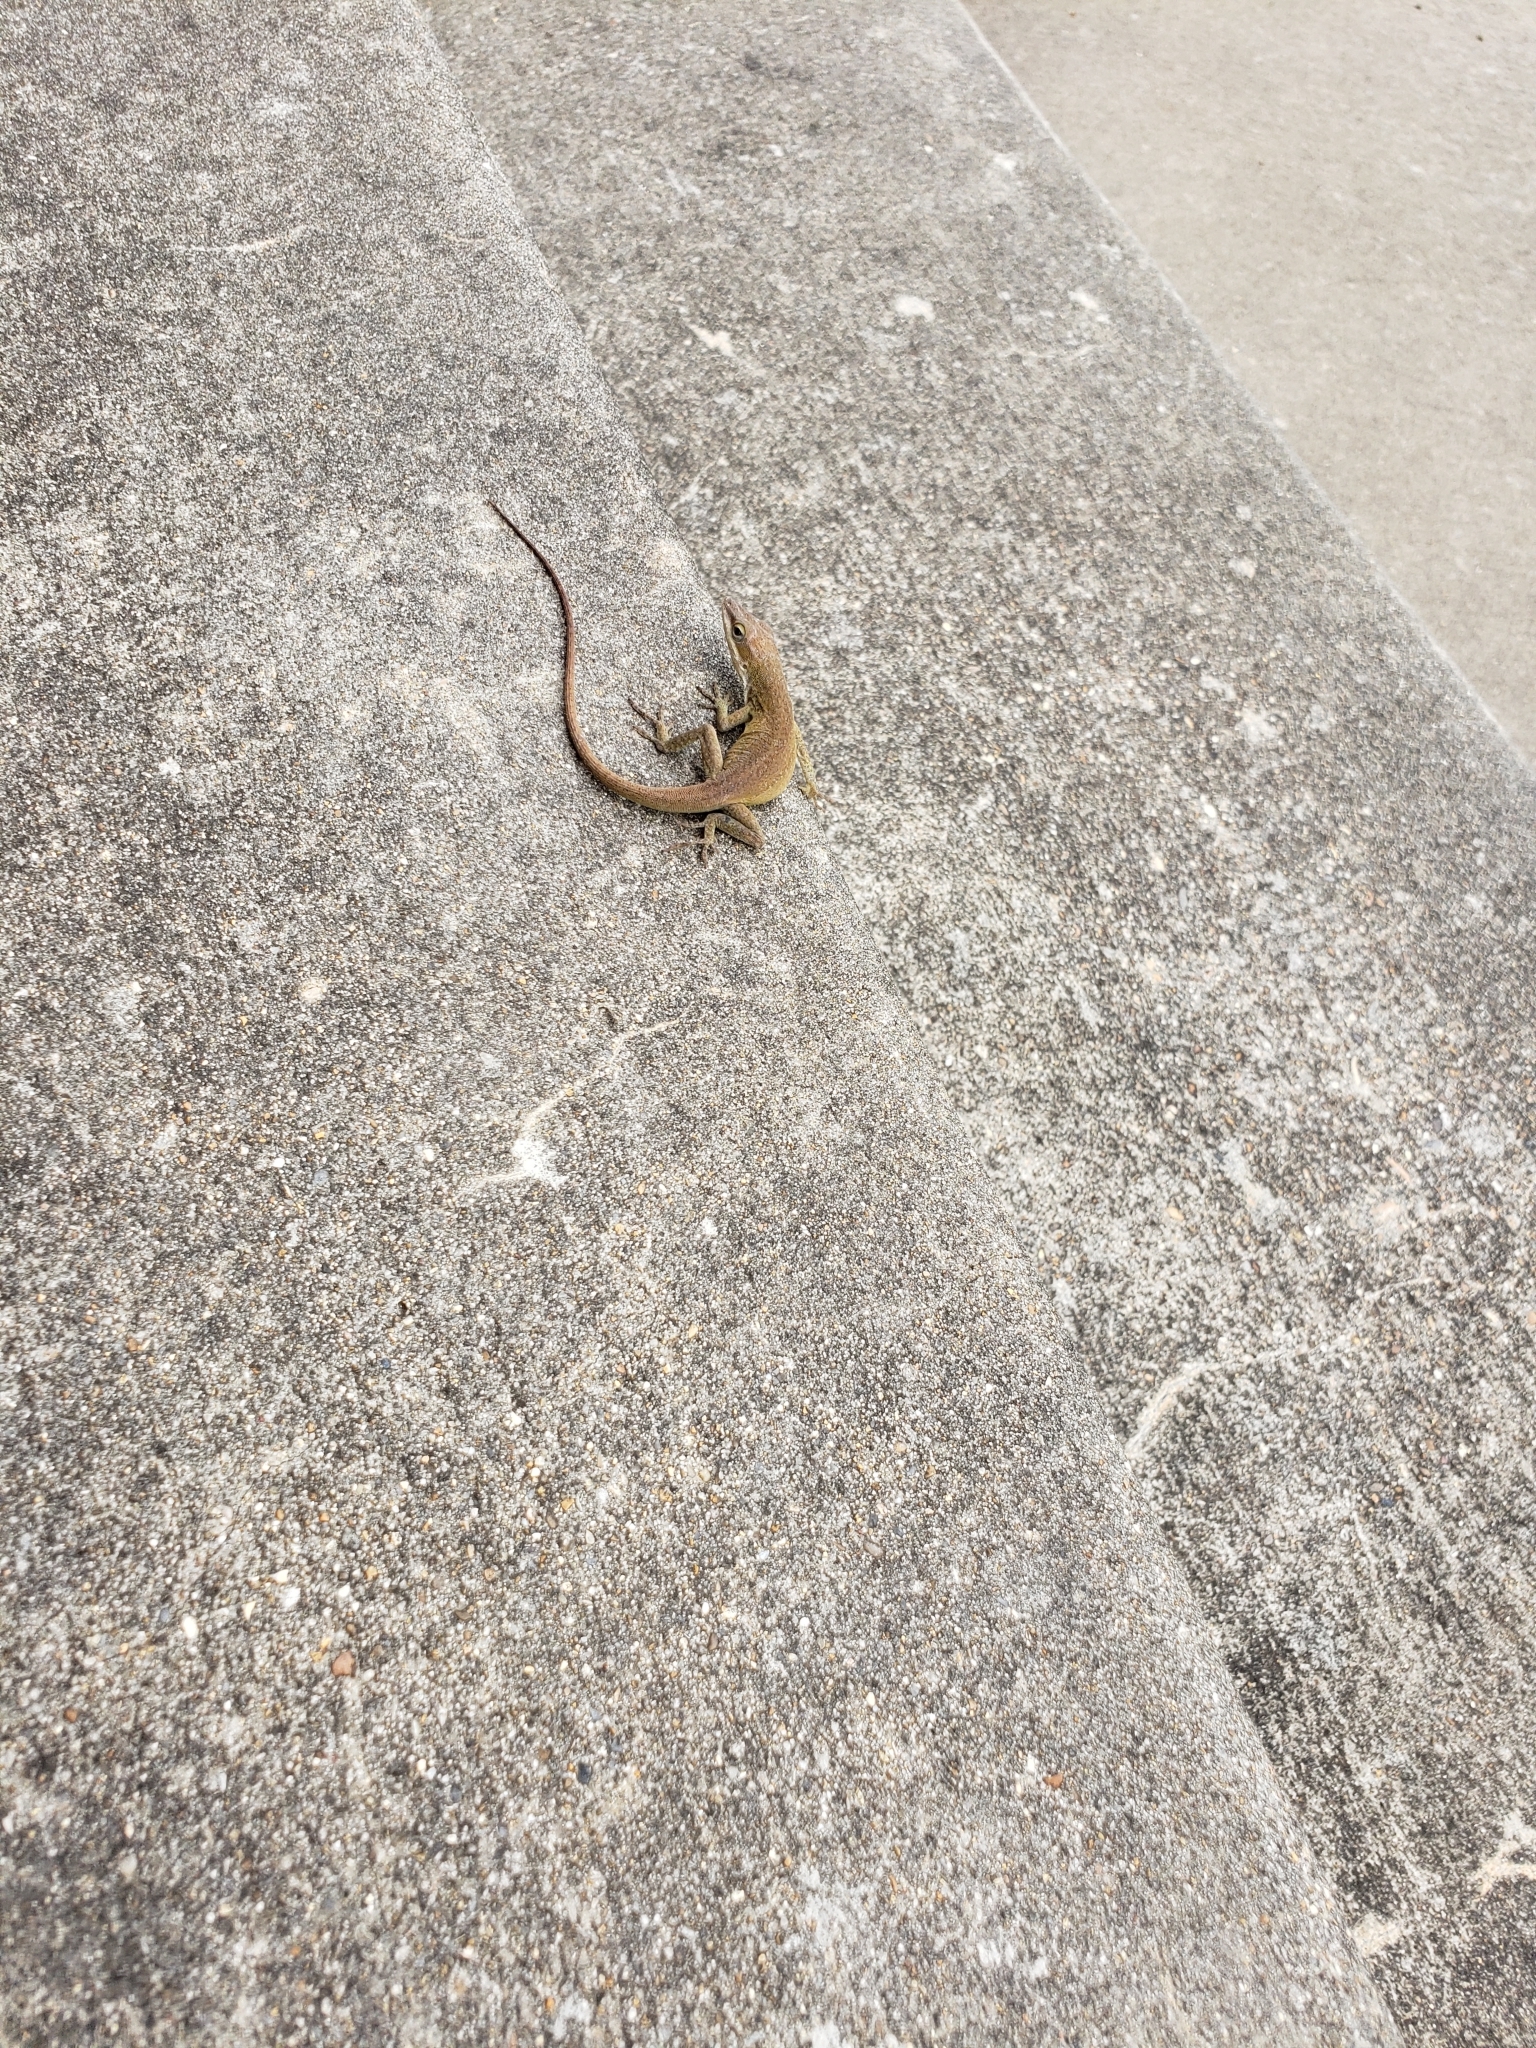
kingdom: Animalia
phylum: Chordata
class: Squamata
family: Dactyloidae
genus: Anolis
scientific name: Anolis carolinensis
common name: Green anole
